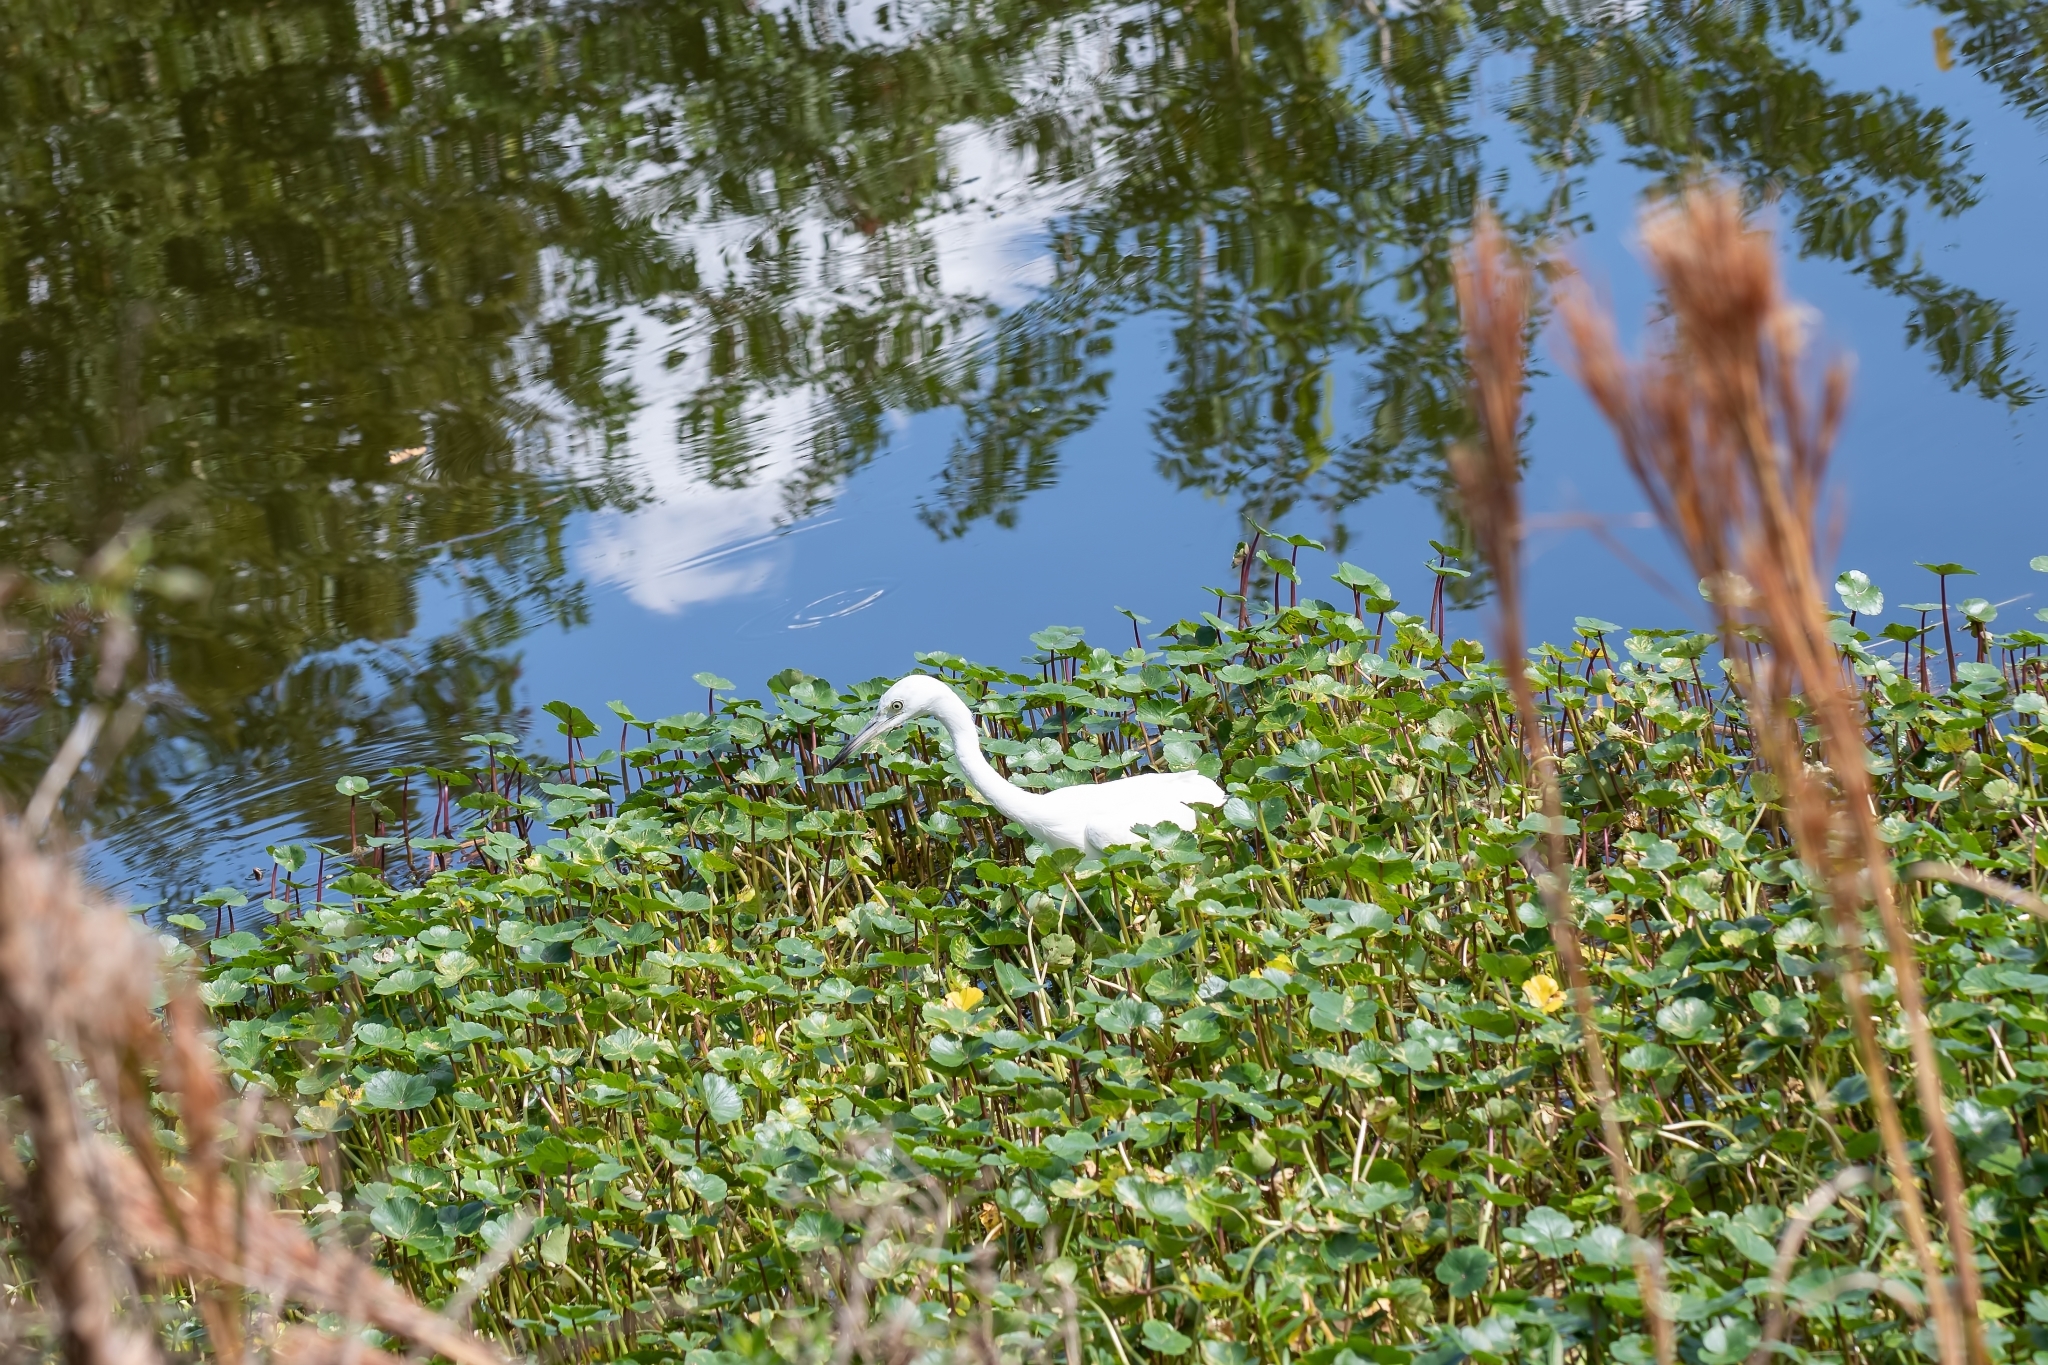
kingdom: Animalia
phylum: Chordata
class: Aves
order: Pelecaniformes
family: Ardeidae
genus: Egretta
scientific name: Egretta caerulea
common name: Little blue heron
